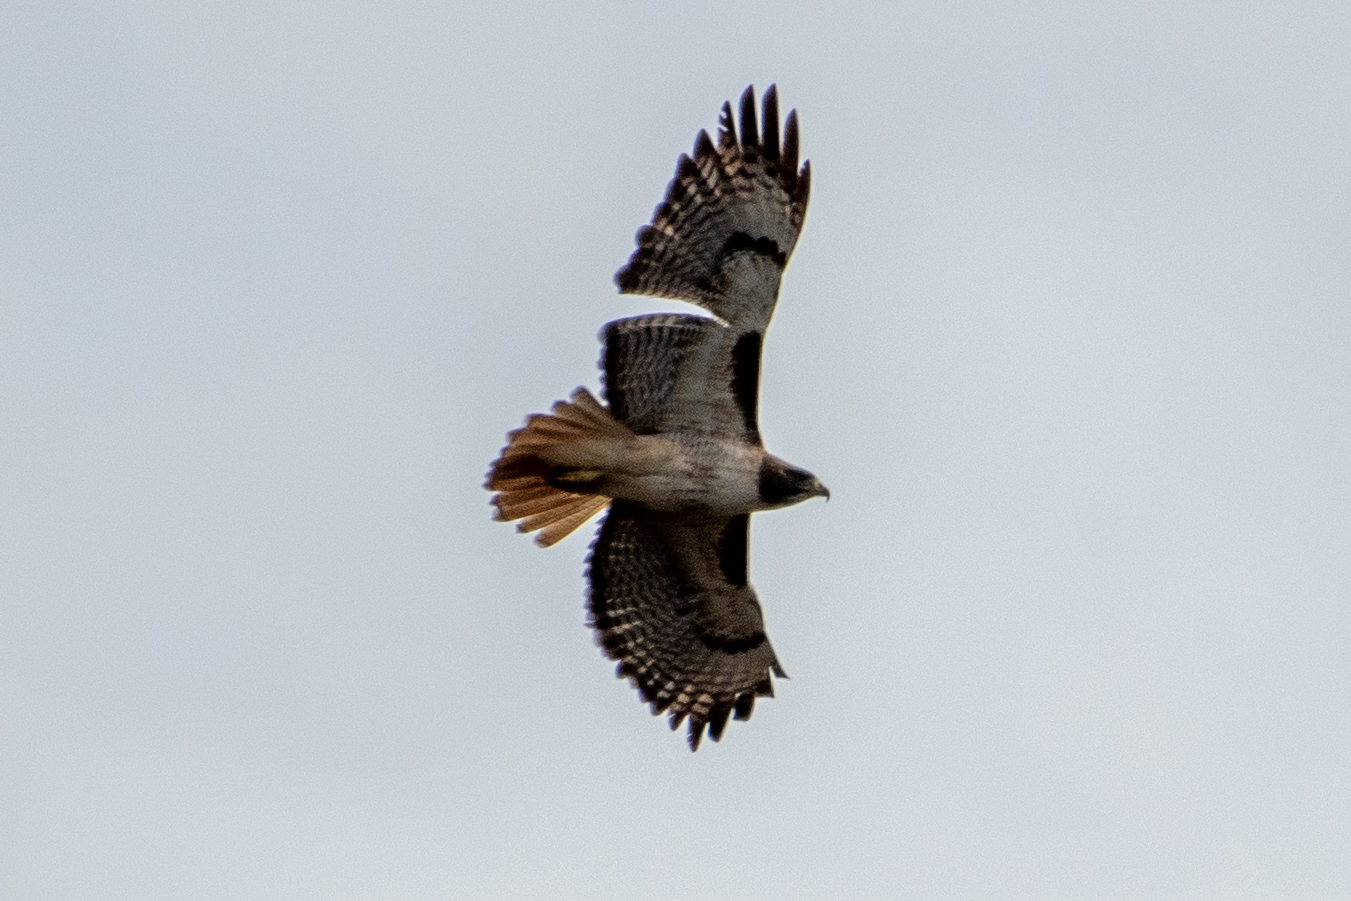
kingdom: Animalia
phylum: Chordata
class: Aves
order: Accipitriformes
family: Accipitridae
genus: Buteo
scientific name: Buteo jamaicensis
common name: Red-tailed hawk
